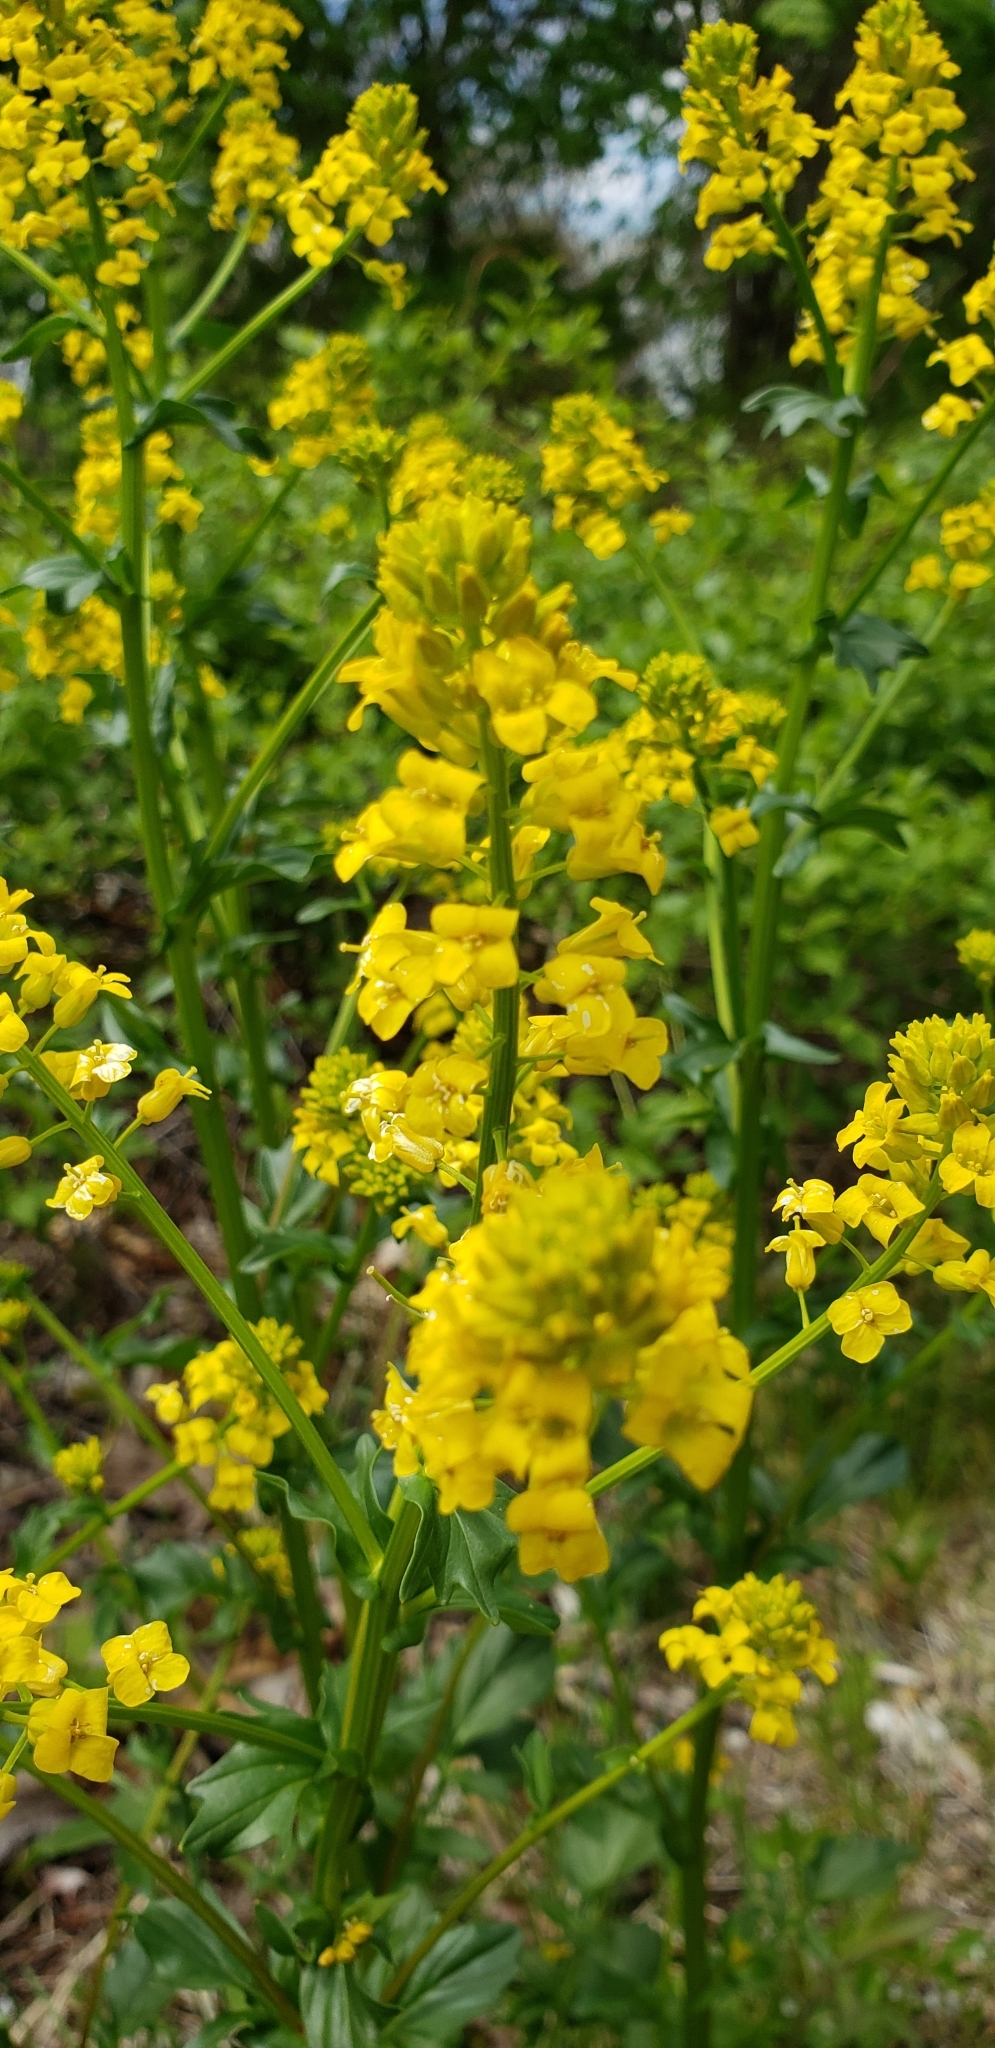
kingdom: Plantae
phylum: Tracheophyta
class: Magnoliopsida
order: Brassicales
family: Brassicaceae
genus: Barbarea
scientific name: Barbarea vulgaris
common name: Cressy-greens
